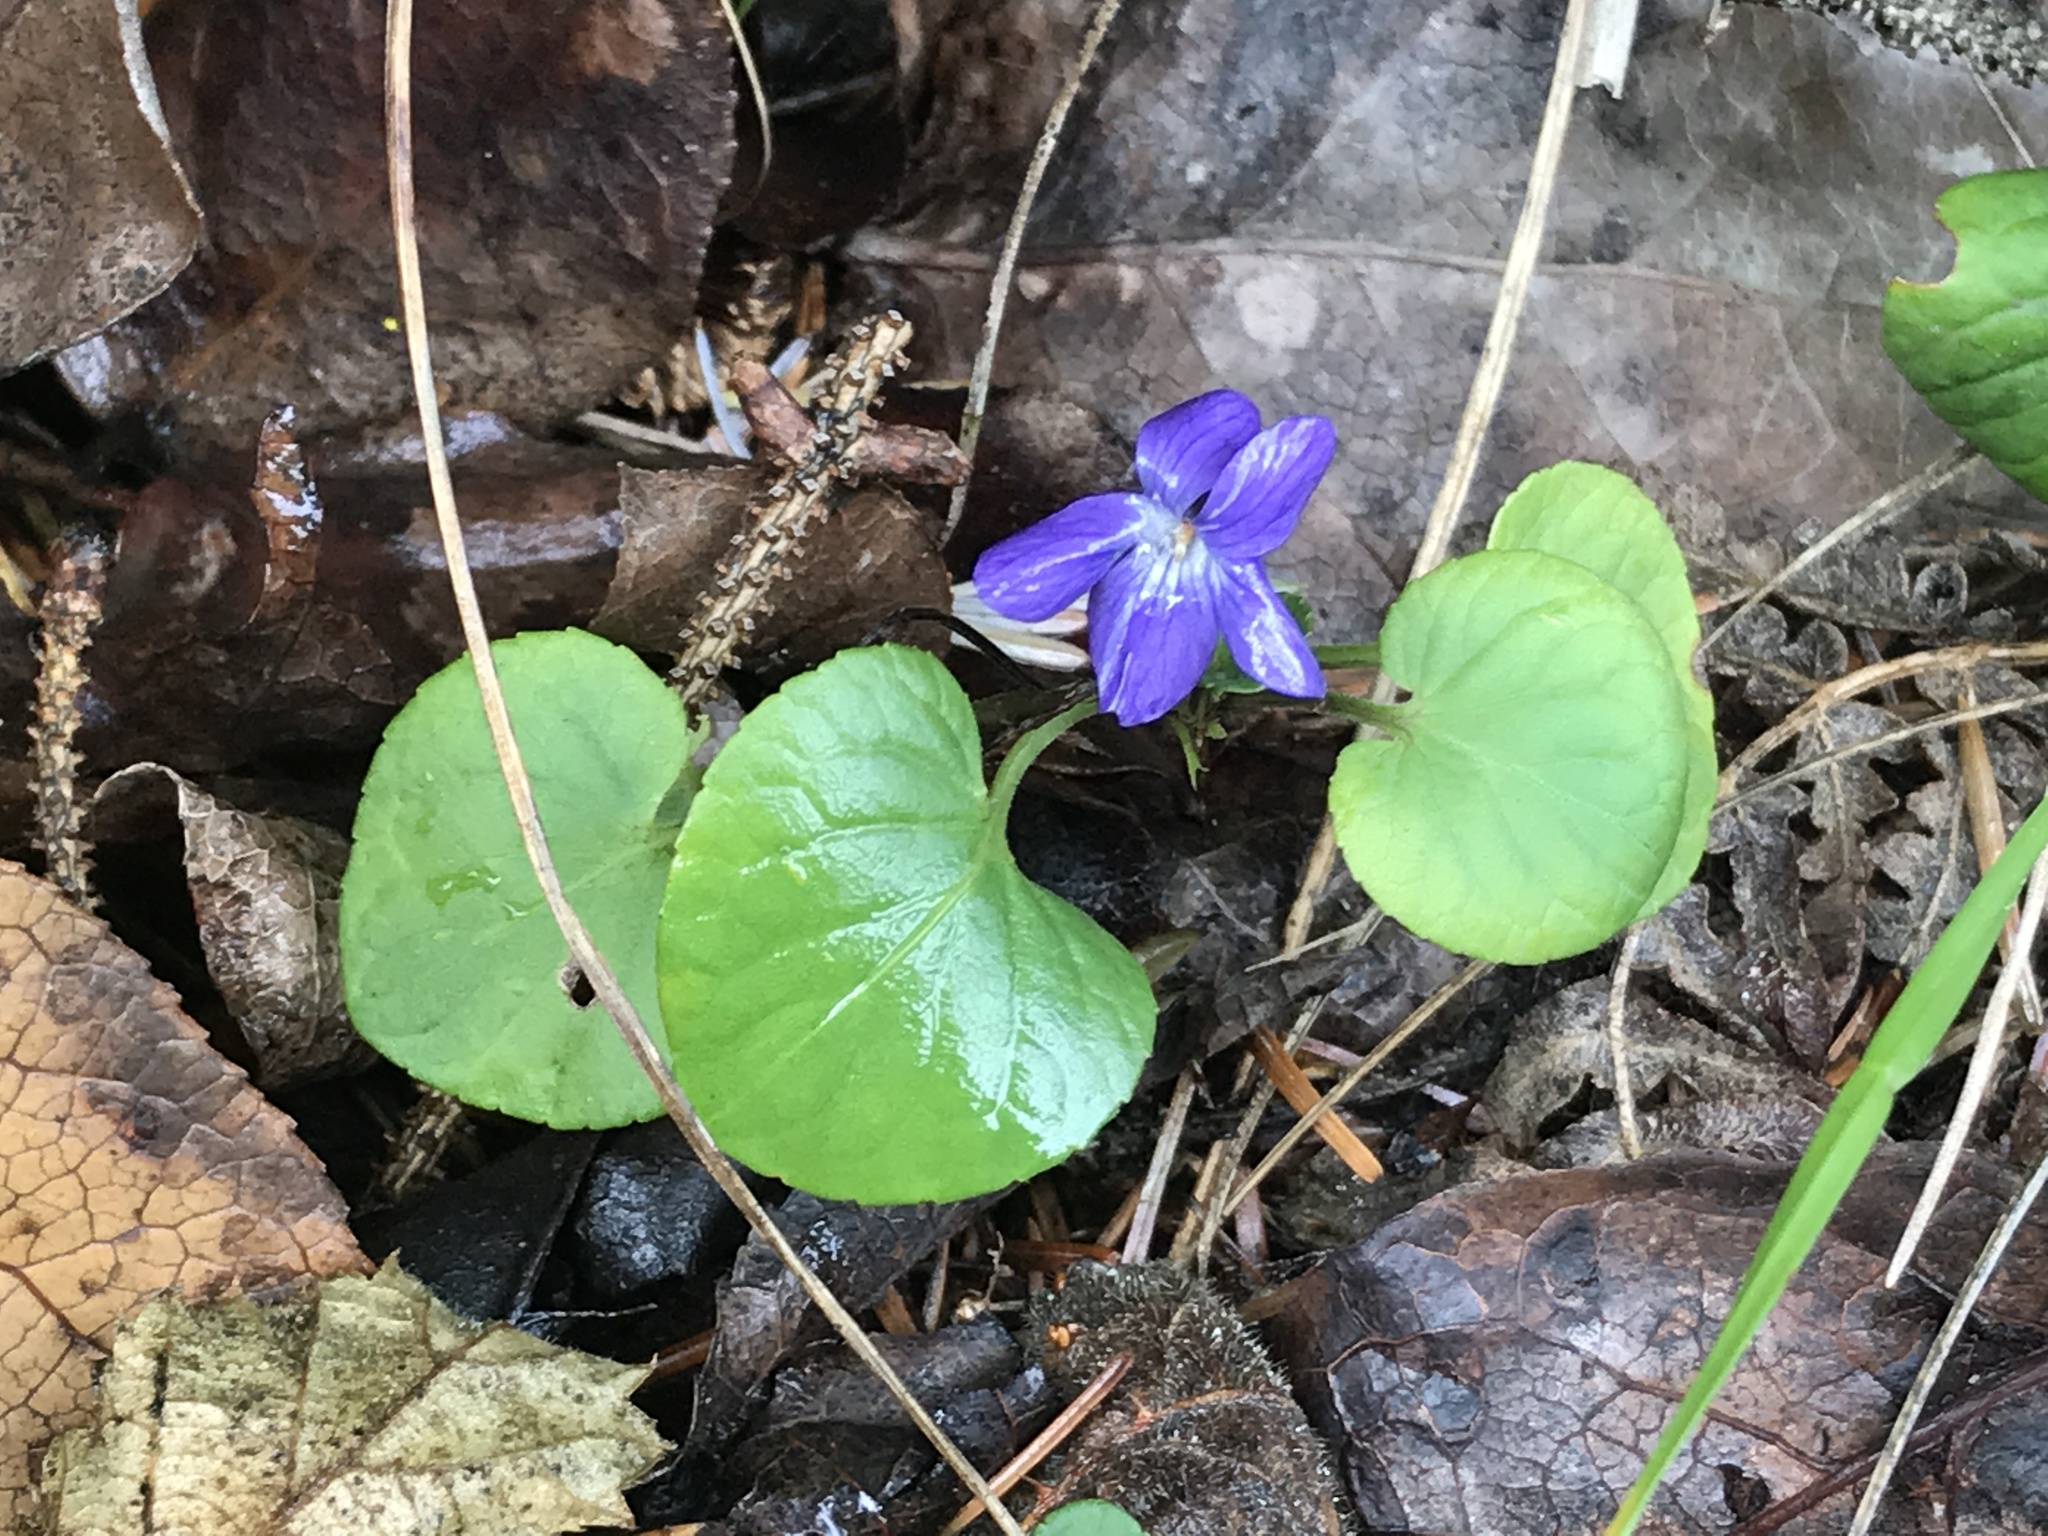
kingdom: Plantae
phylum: Tracheophyta
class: Magnoliopsida
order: Malpighiales
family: Violaceae
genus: Viola
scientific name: Viola odorata
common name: Sweet violet
